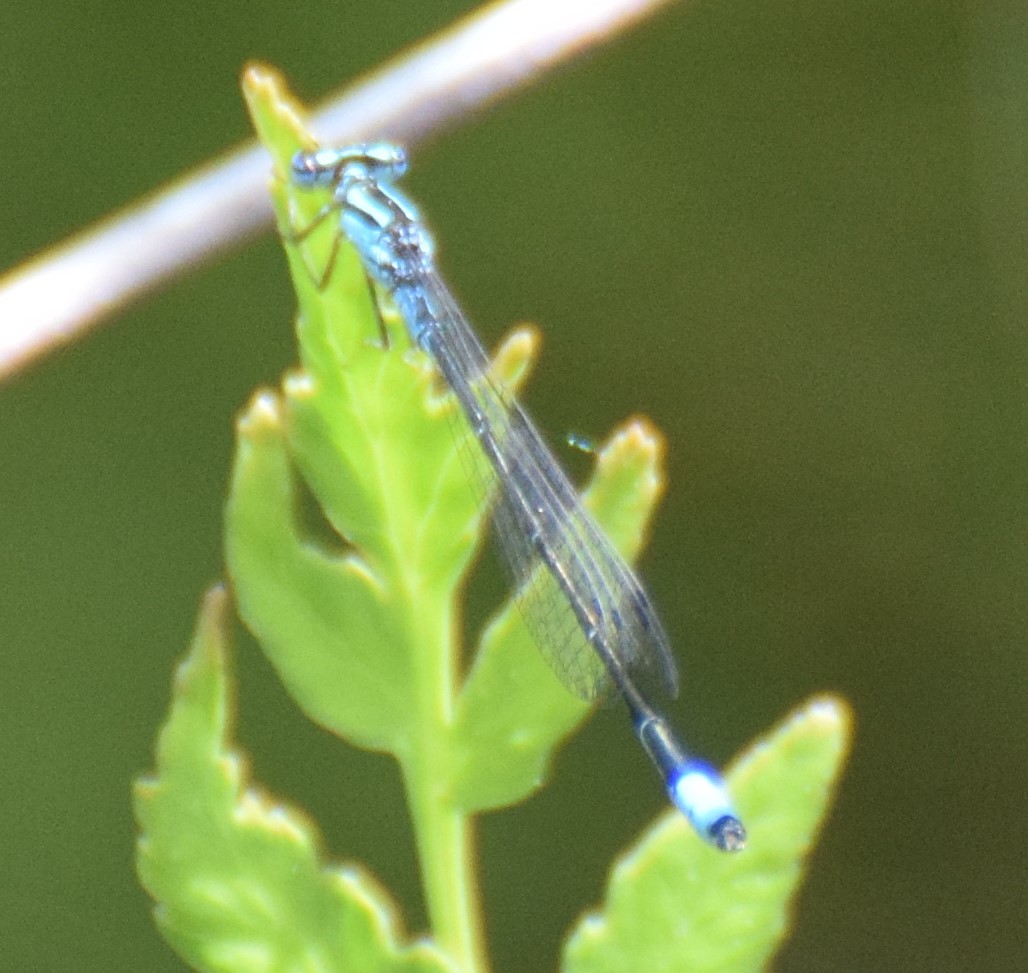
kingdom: Animalia
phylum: Arthropoda
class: Insecta
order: Odonata
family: Coenagrionidae
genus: Enallagma
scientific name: Enallagma divagans
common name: Turquoise bluet
